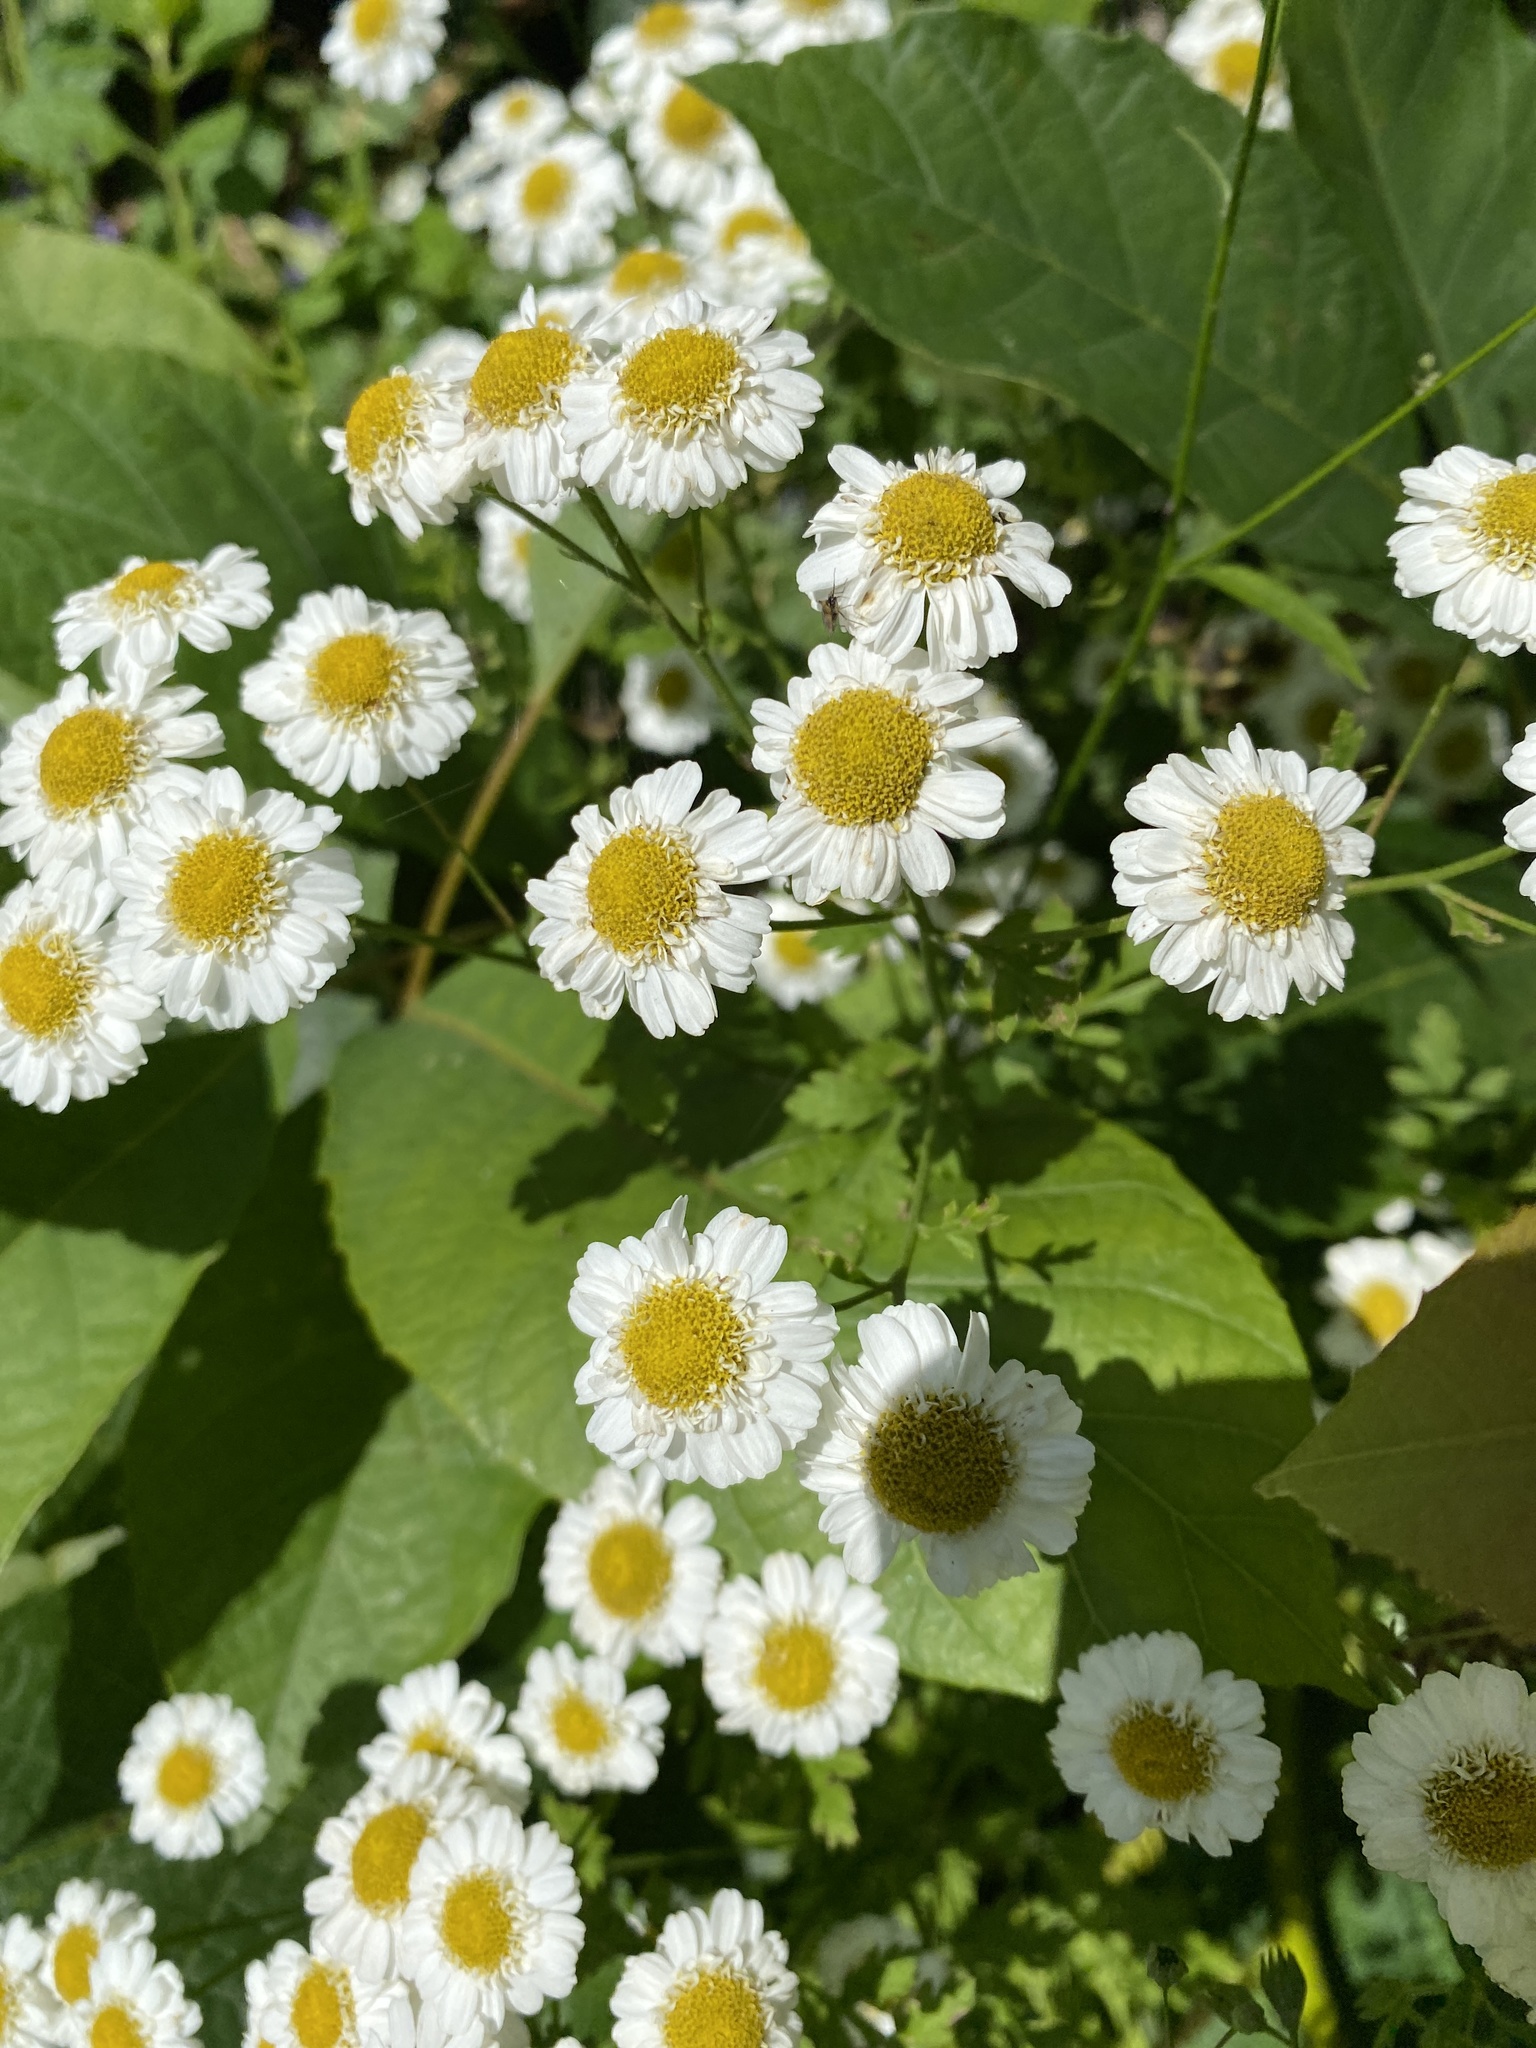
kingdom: Plantae
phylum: Tracheophyta
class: Magnoliopsida
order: Asterales
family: Asteraceae
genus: Tanacetum
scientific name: Tanacetum parthenium
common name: Feverfew
